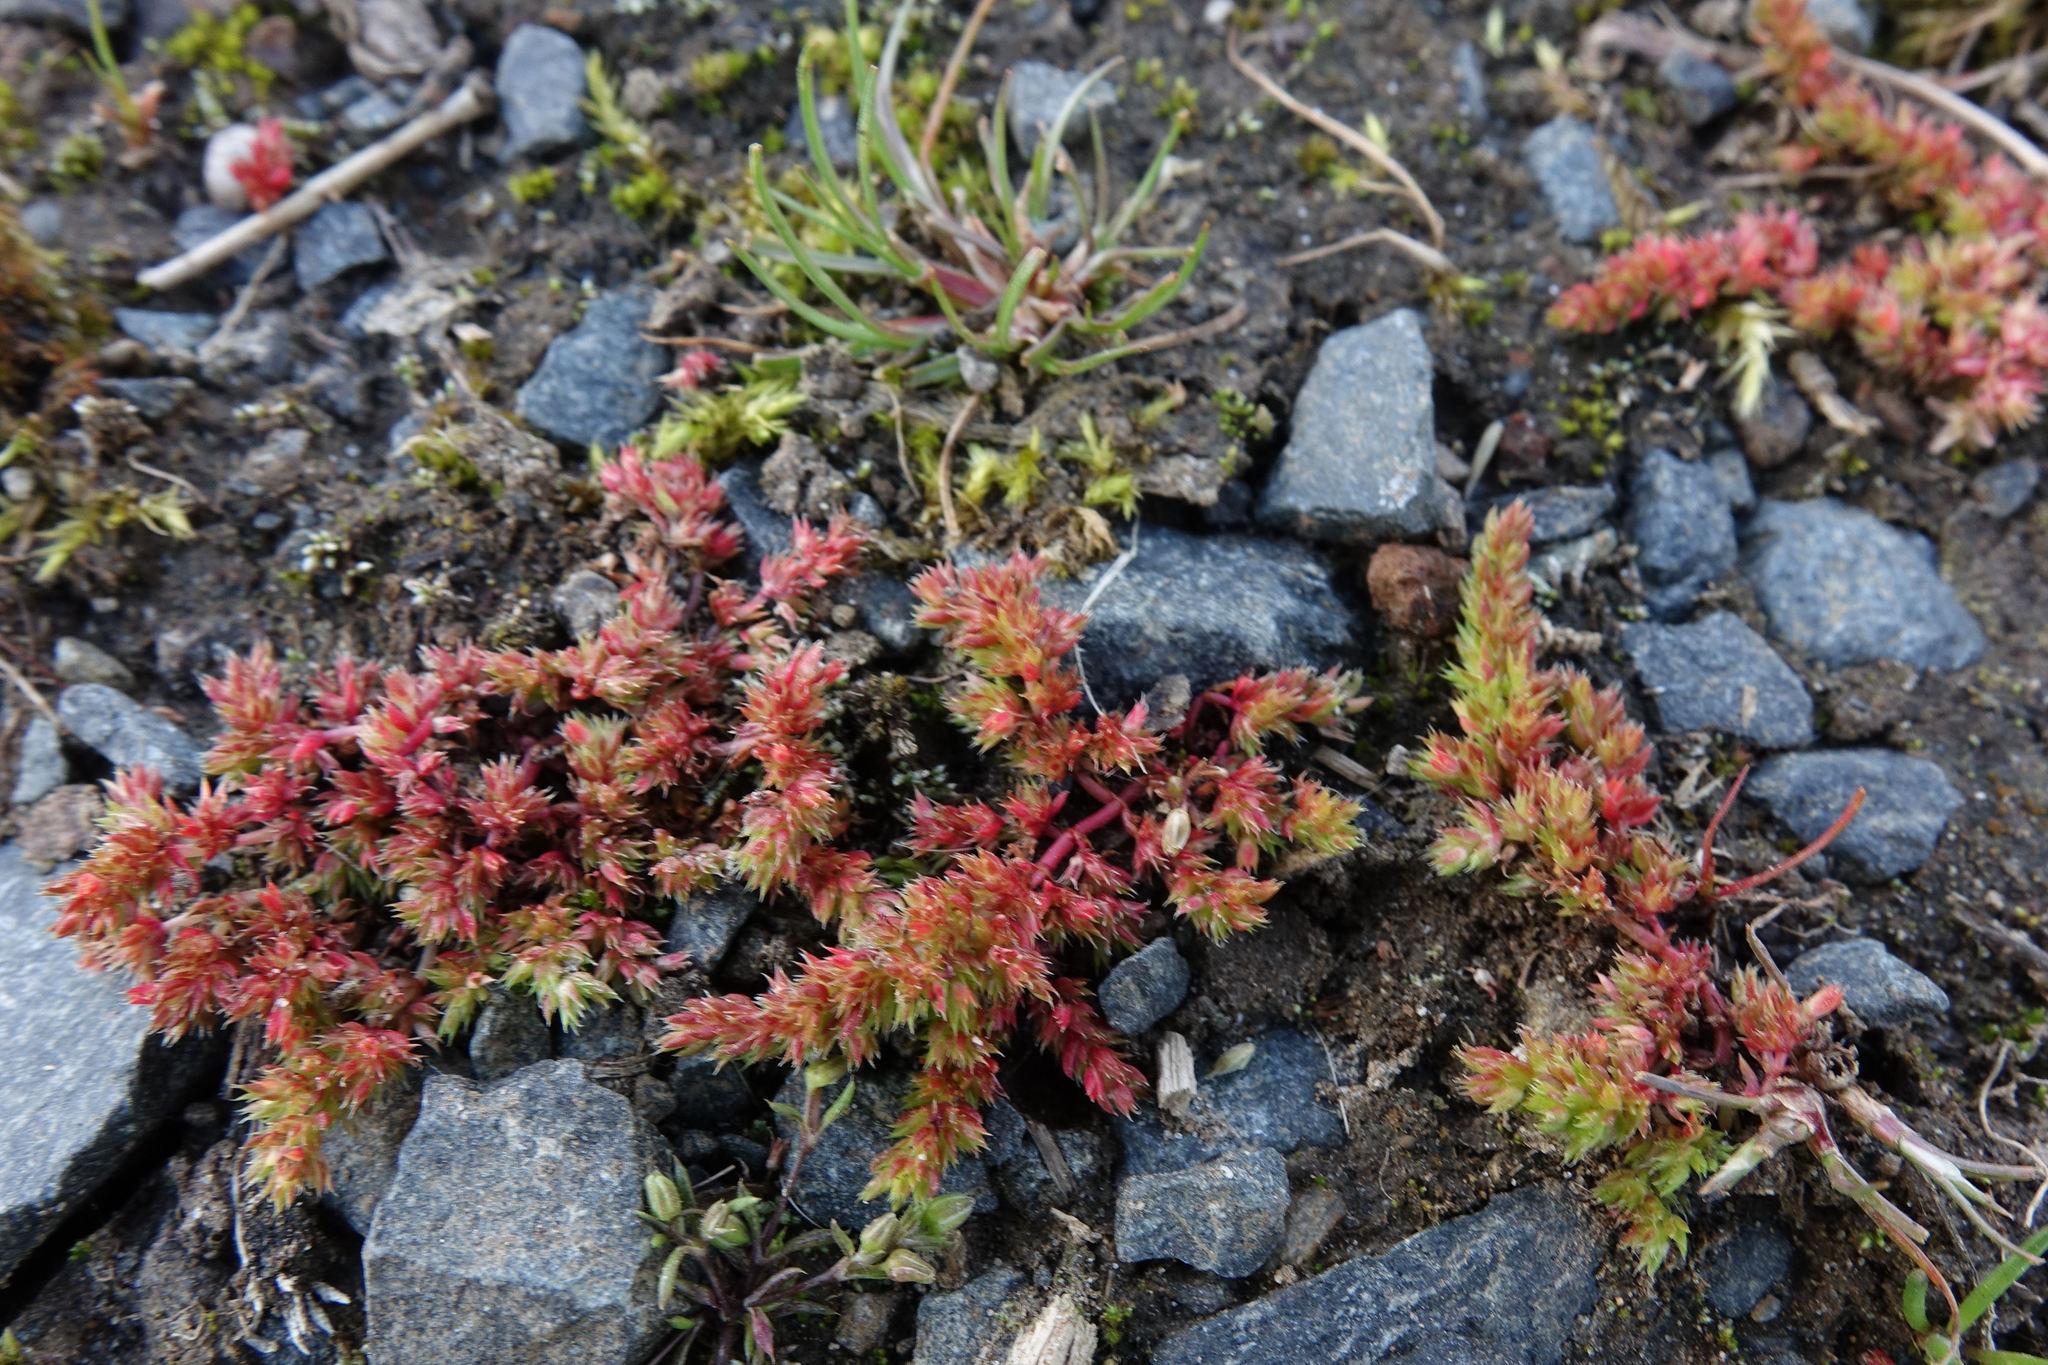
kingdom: Plantae
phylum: Tracheophyta
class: Magnoliopsida
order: Saxifragales
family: Crassulaceae
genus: Crassula
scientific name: Crassula alata
